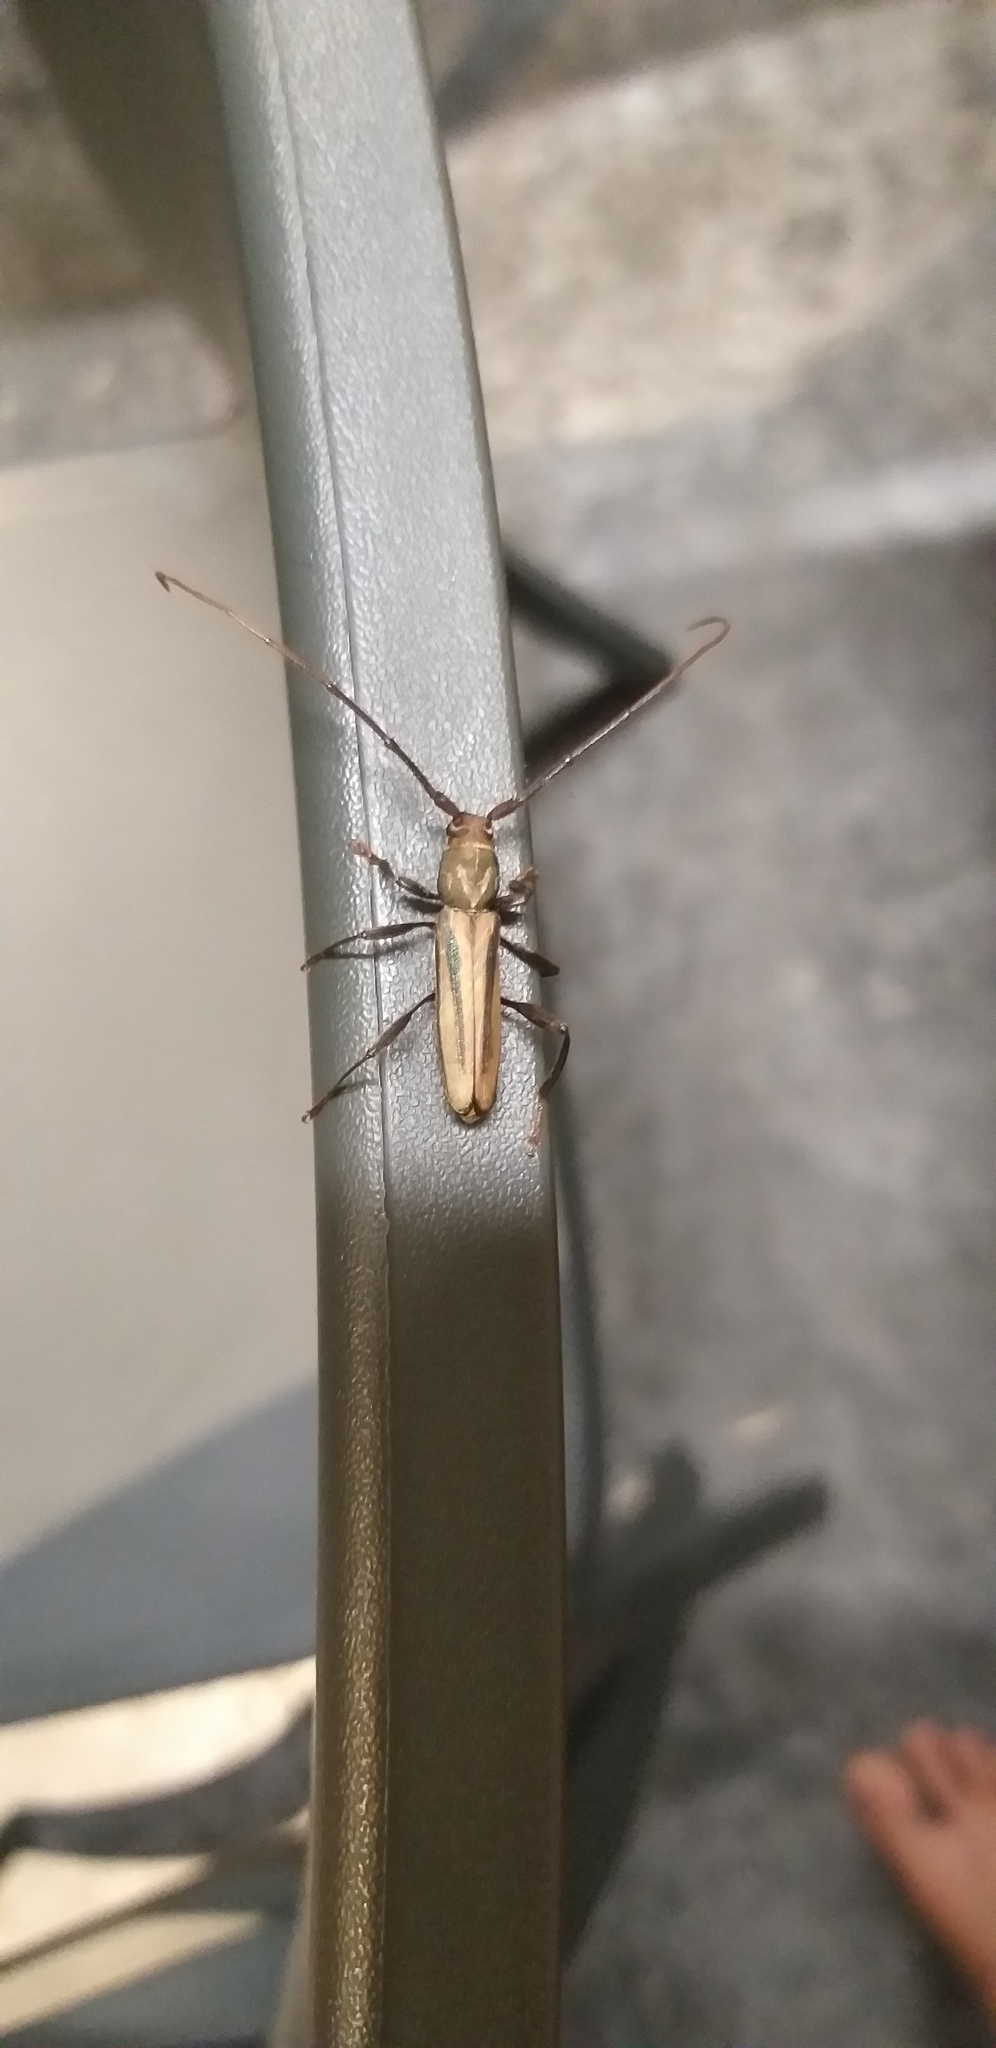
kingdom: Animalia
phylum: Arthropoda
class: Insecta
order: Coleoptera
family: Cerambycidae
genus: Xystrocera
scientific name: Xystrocera dispar
